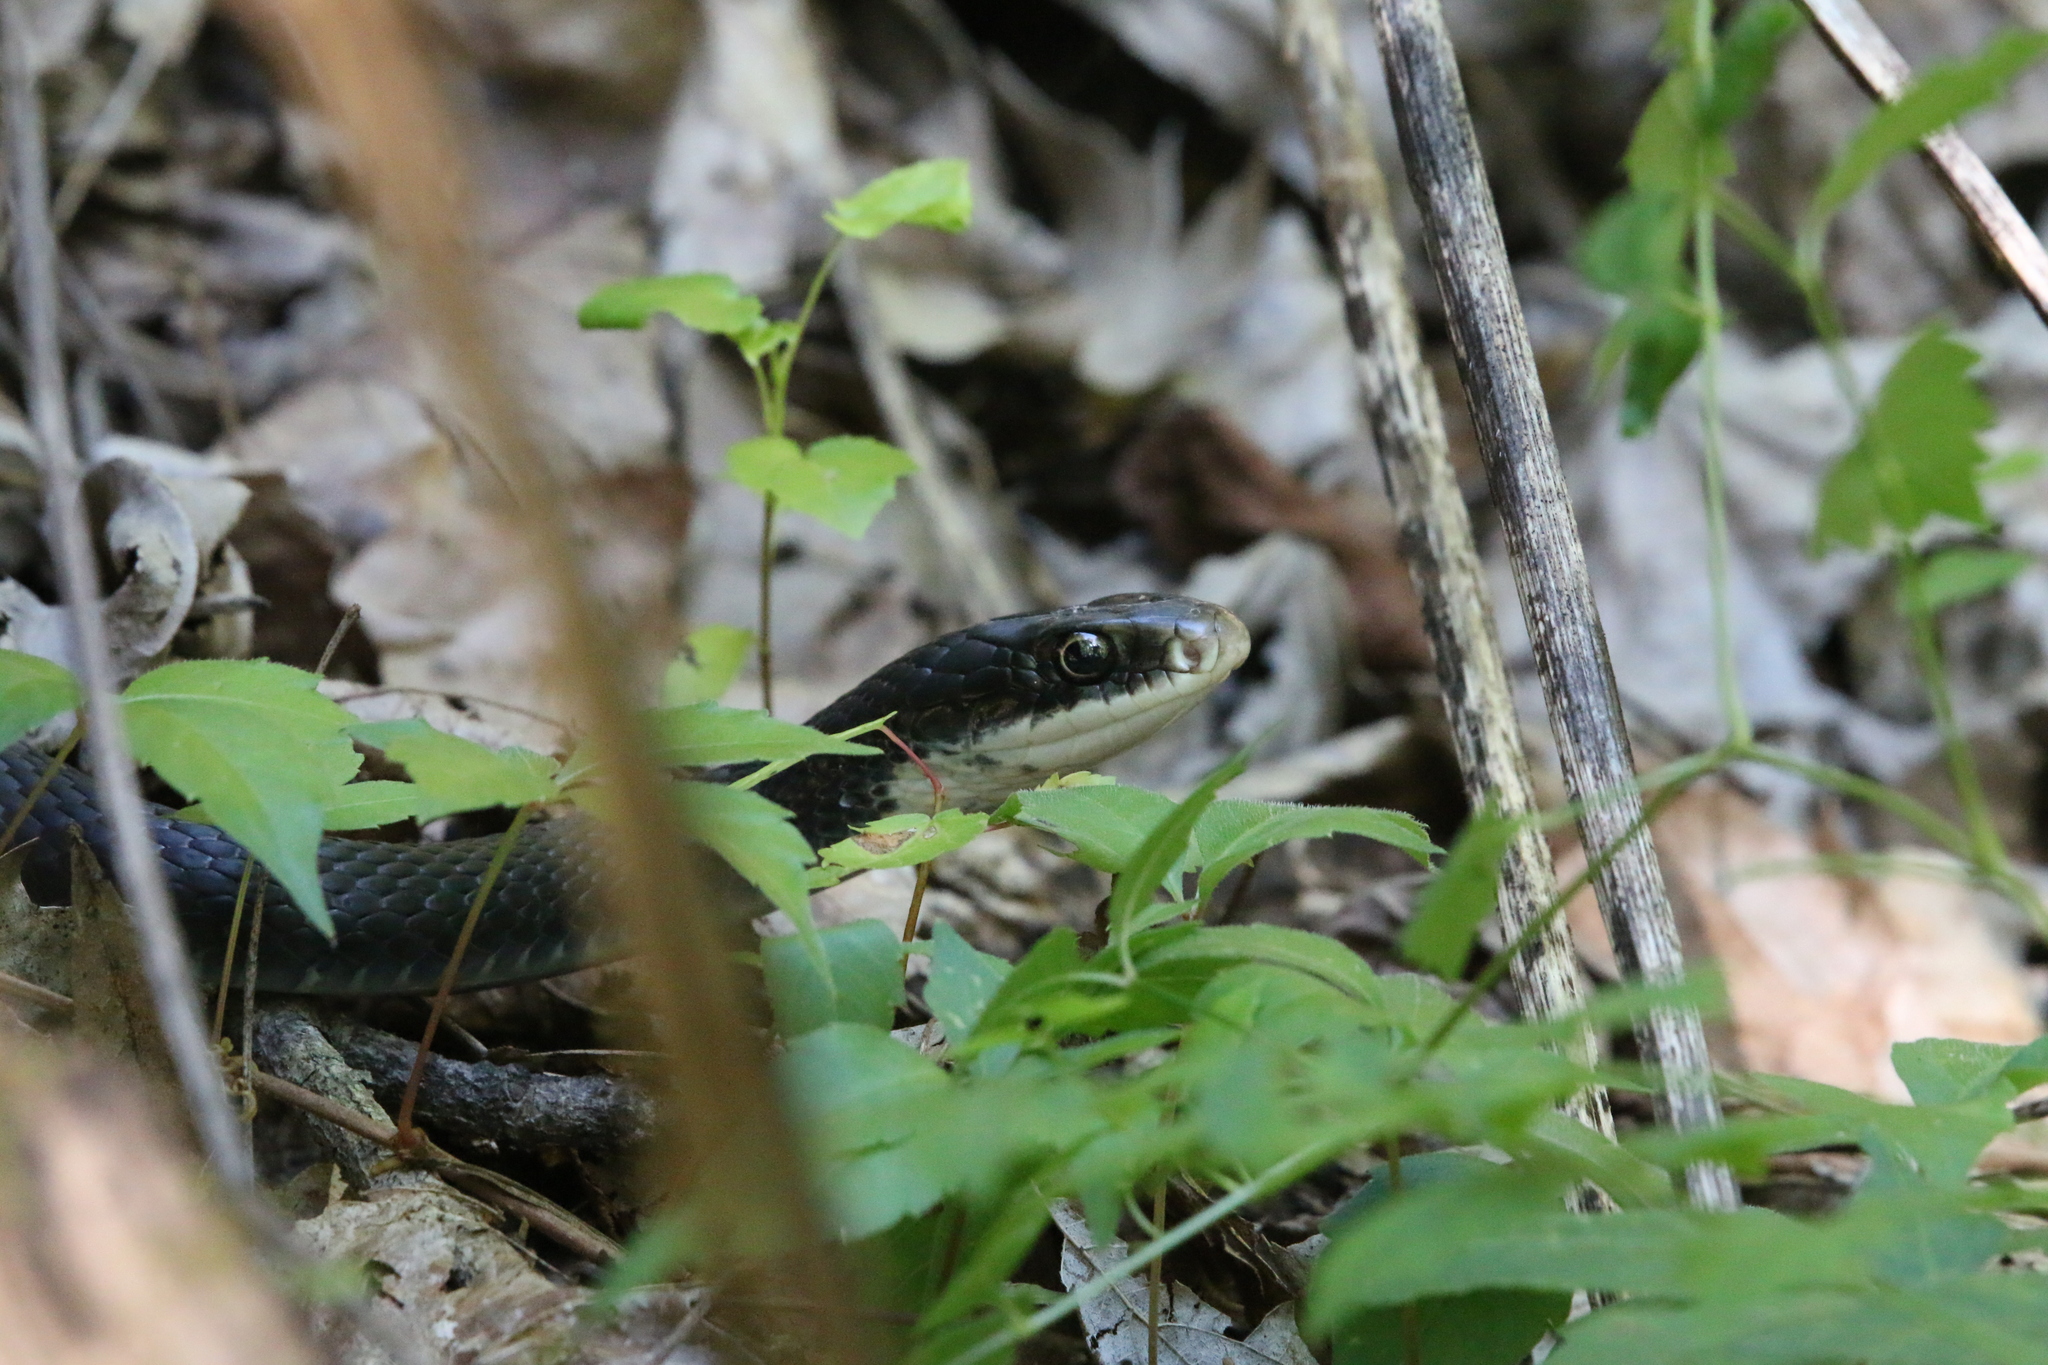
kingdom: Animalia
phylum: Chordata
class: Squamata
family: Colubridae
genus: Coluber
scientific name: Coluber constrictor
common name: Eastern racer
